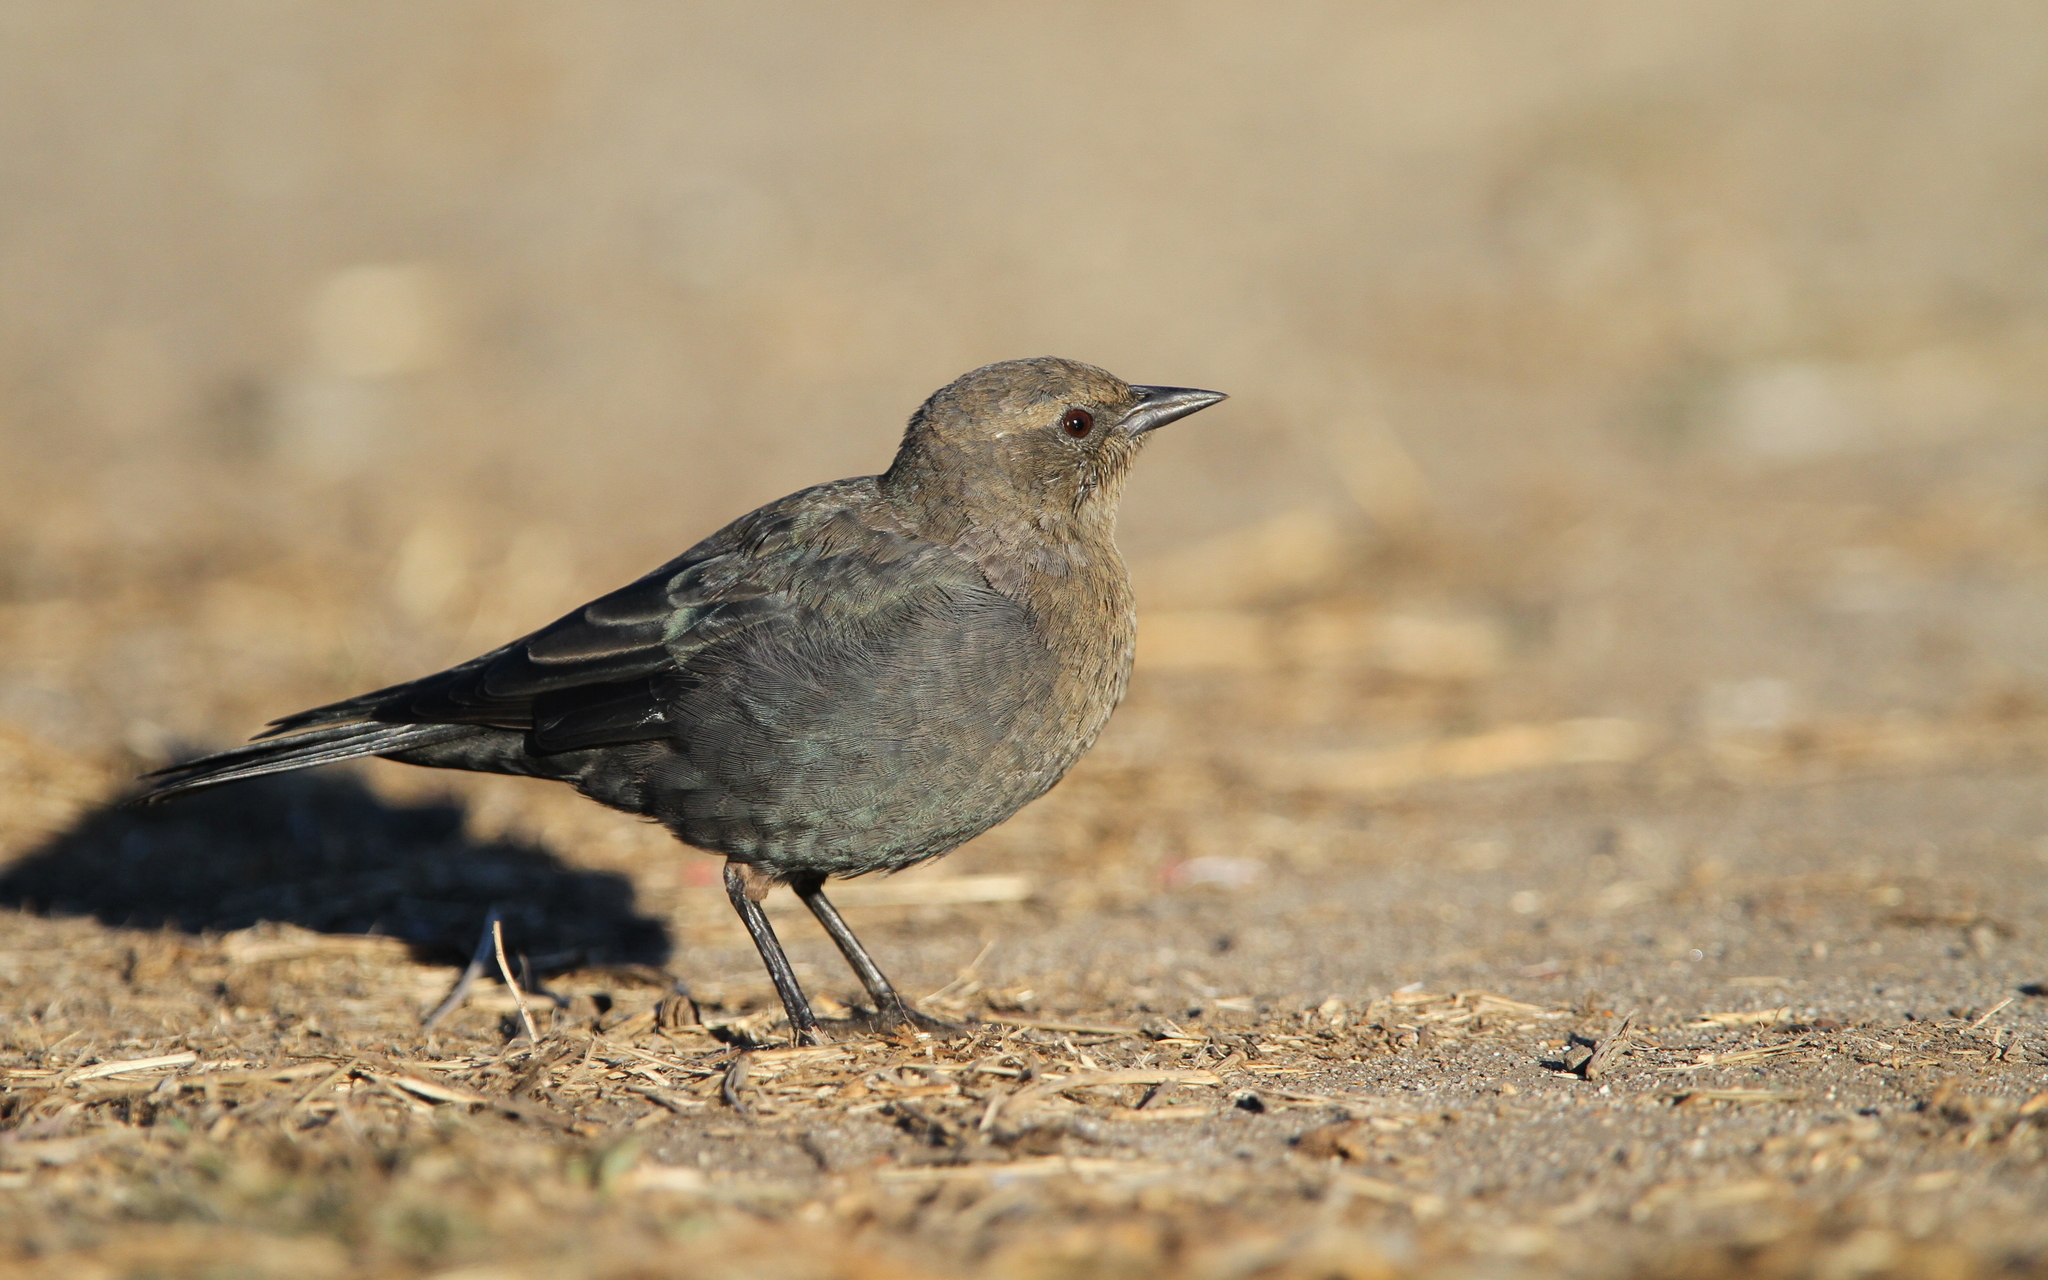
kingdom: Animalia
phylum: Chordata
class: Aves
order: Passeriformes
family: Icteridae
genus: Euphagus
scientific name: Euphagus cyanocephalus
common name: Brewer's blackbird
